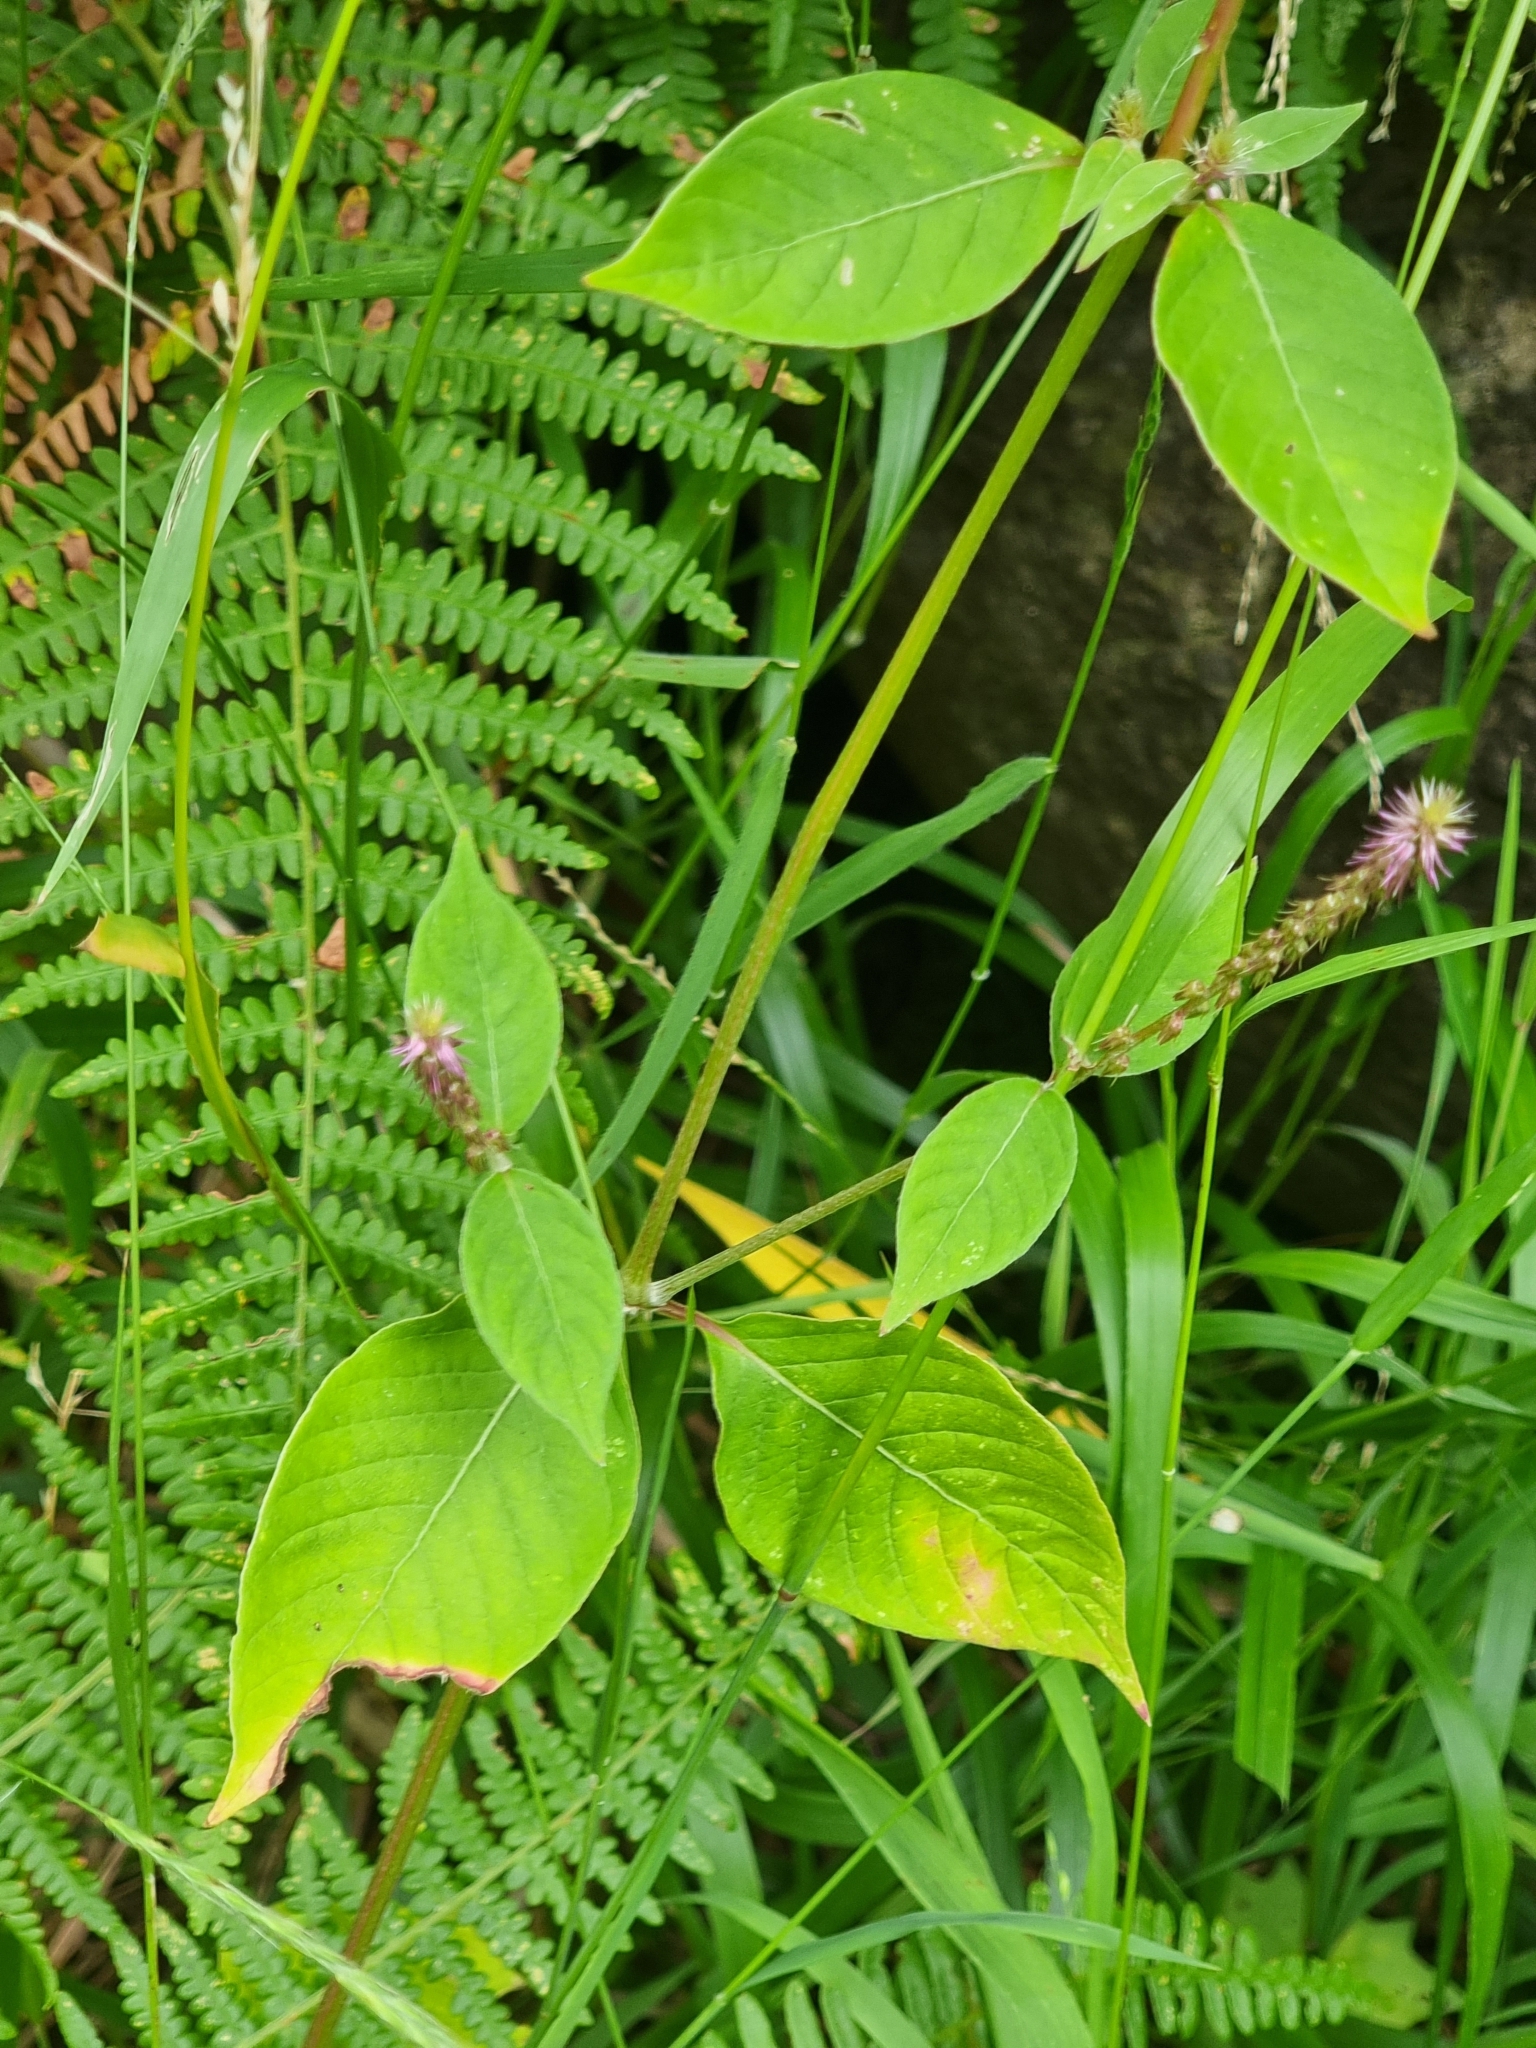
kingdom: Plantae
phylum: Tracheophyta
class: Magnoliopsida
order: Caryophyllales
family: Amaranthaceae
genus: Achyranthes
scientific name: Achyranthes aspera
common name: Devil's horsewhip
